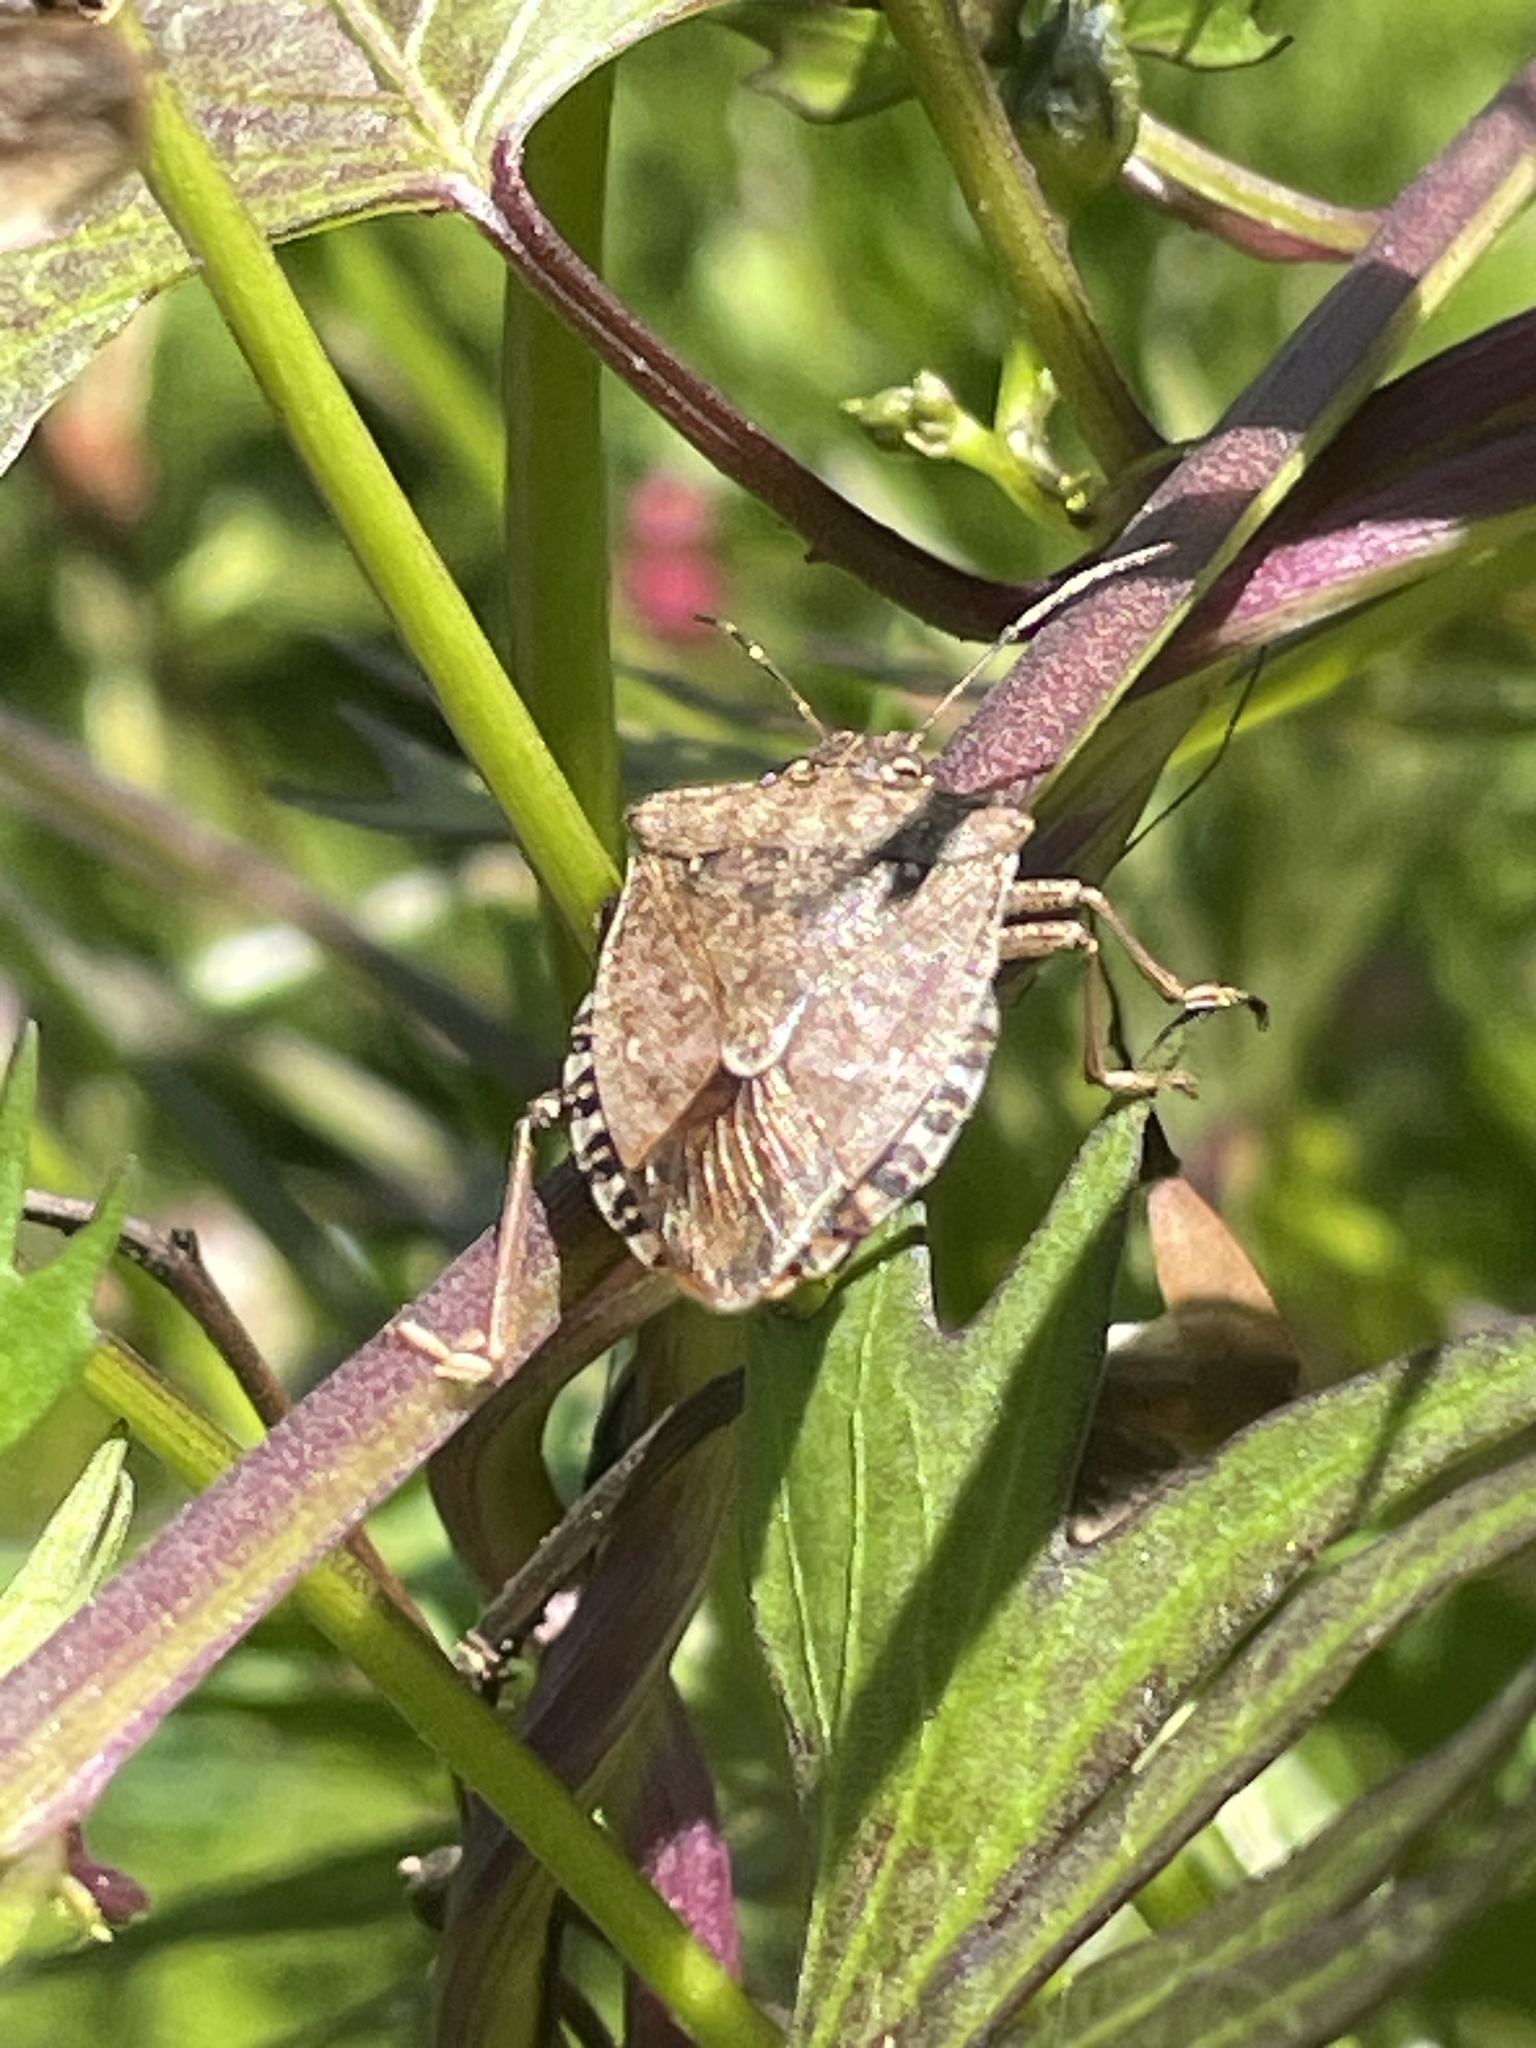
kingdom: Animalia
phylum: Arthropoda
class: Insecta
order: Hemiptera
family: Pentatomidae
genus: Halyomorpha
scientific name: Halyomorpha halys
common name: Brown marmorated stink bug
